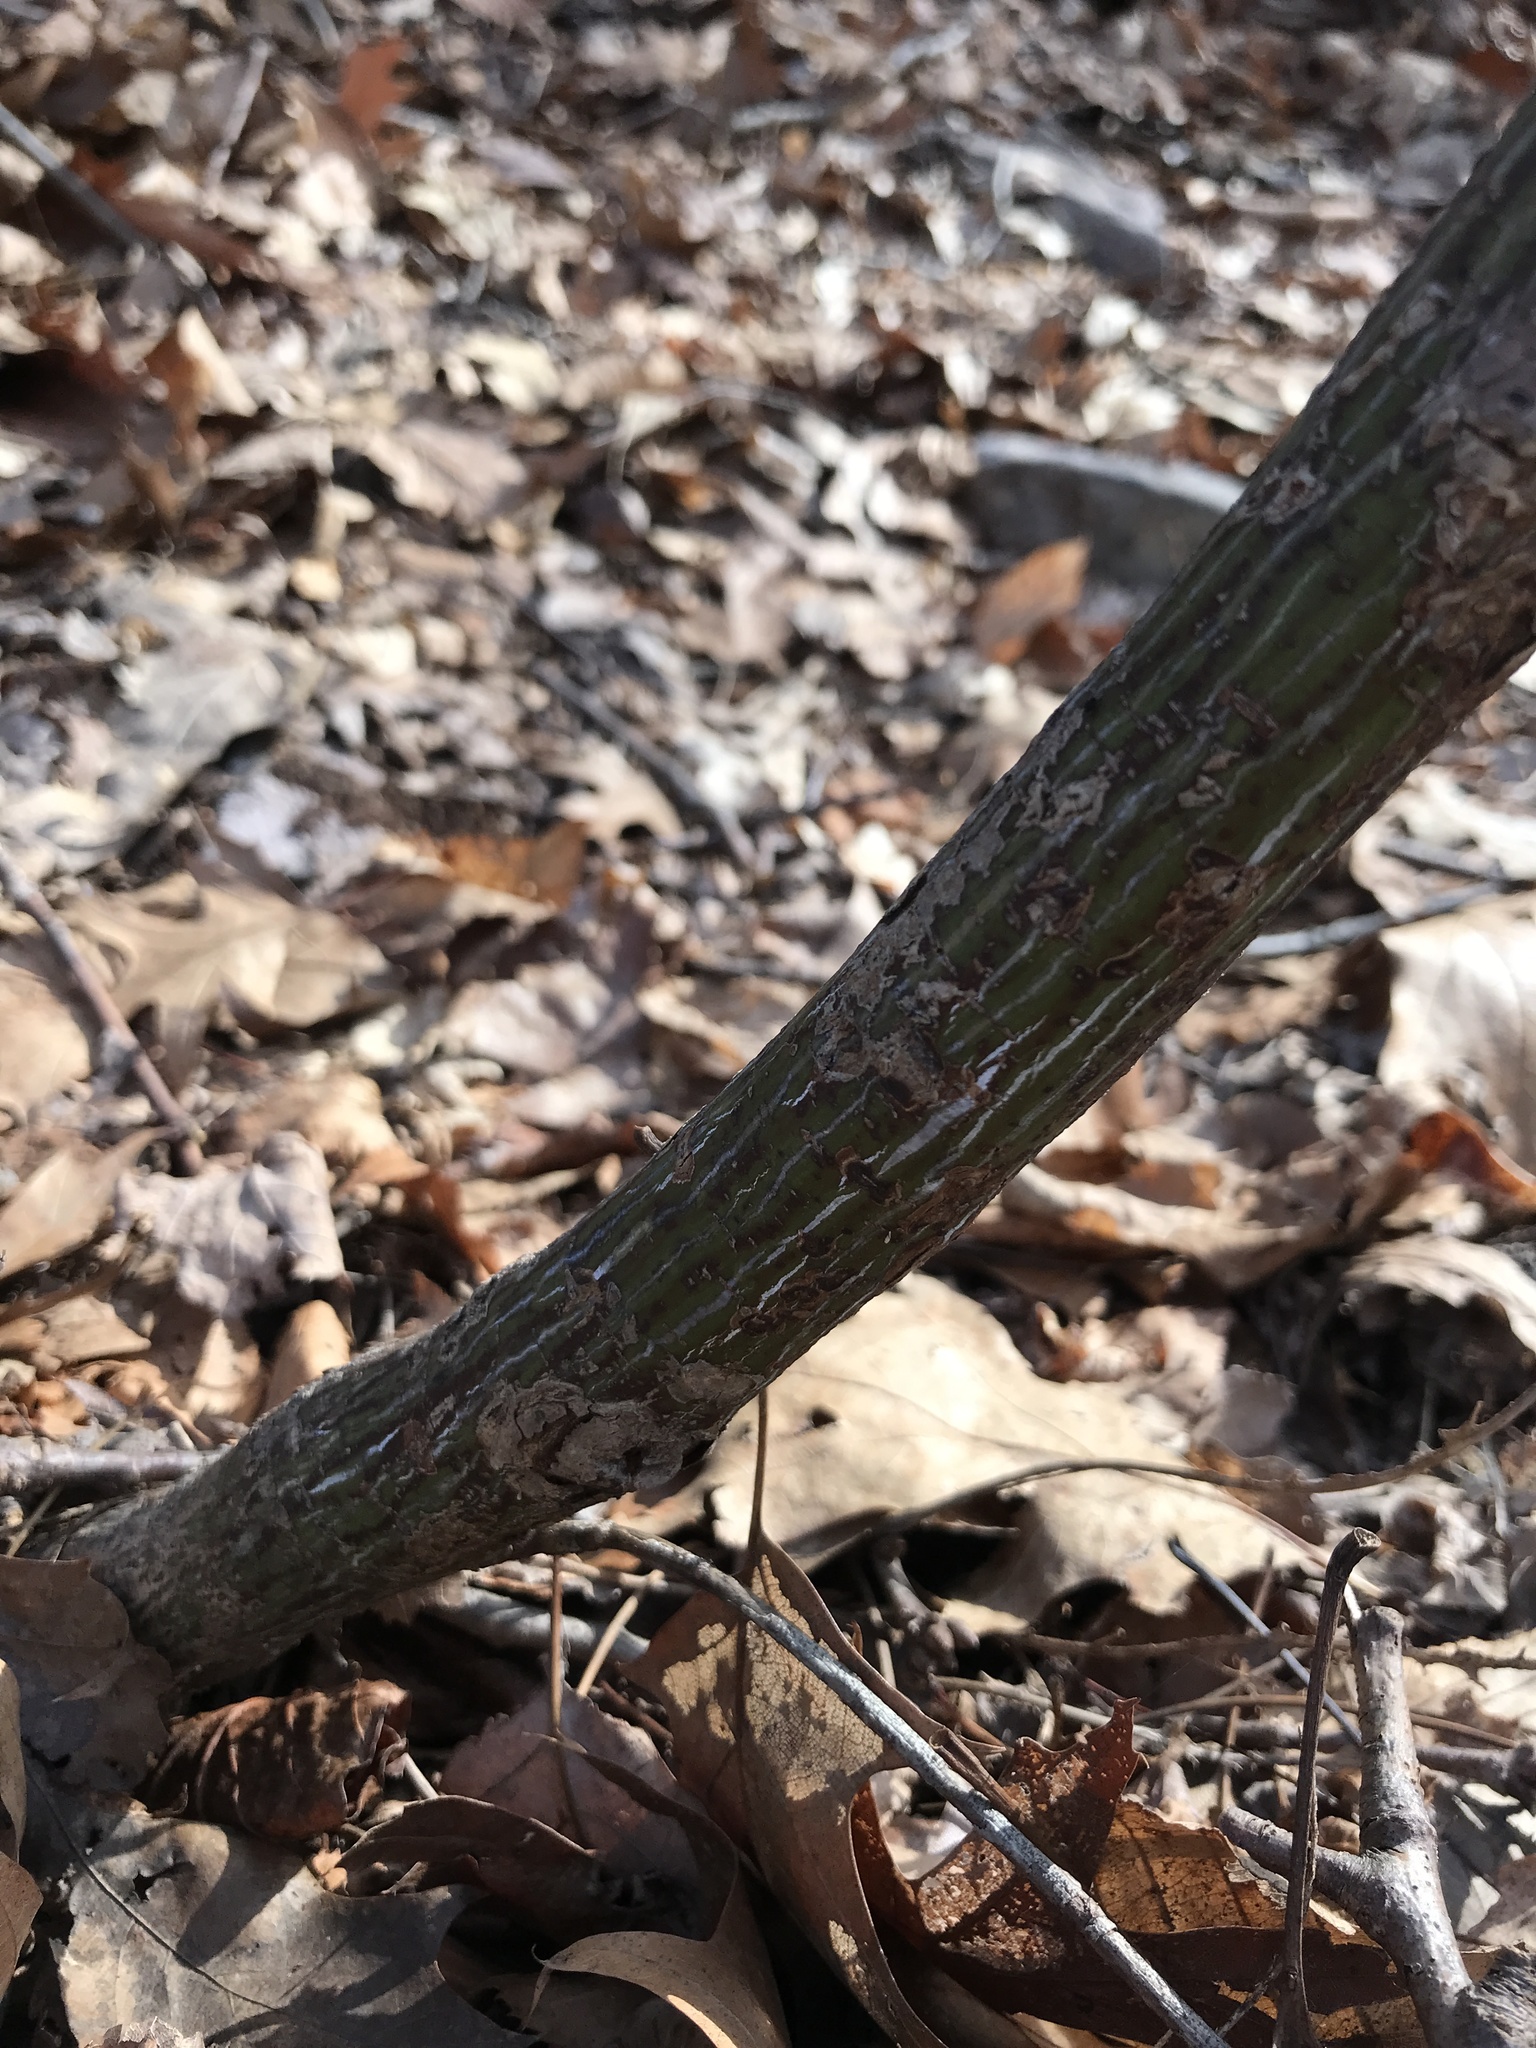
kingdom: Plantae
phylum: Tracheophyta
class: Magnoliopsida
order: Sapindales
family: Sapindaceae
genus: Acer
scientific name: Acer pensylvanicum
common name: Moosewood
